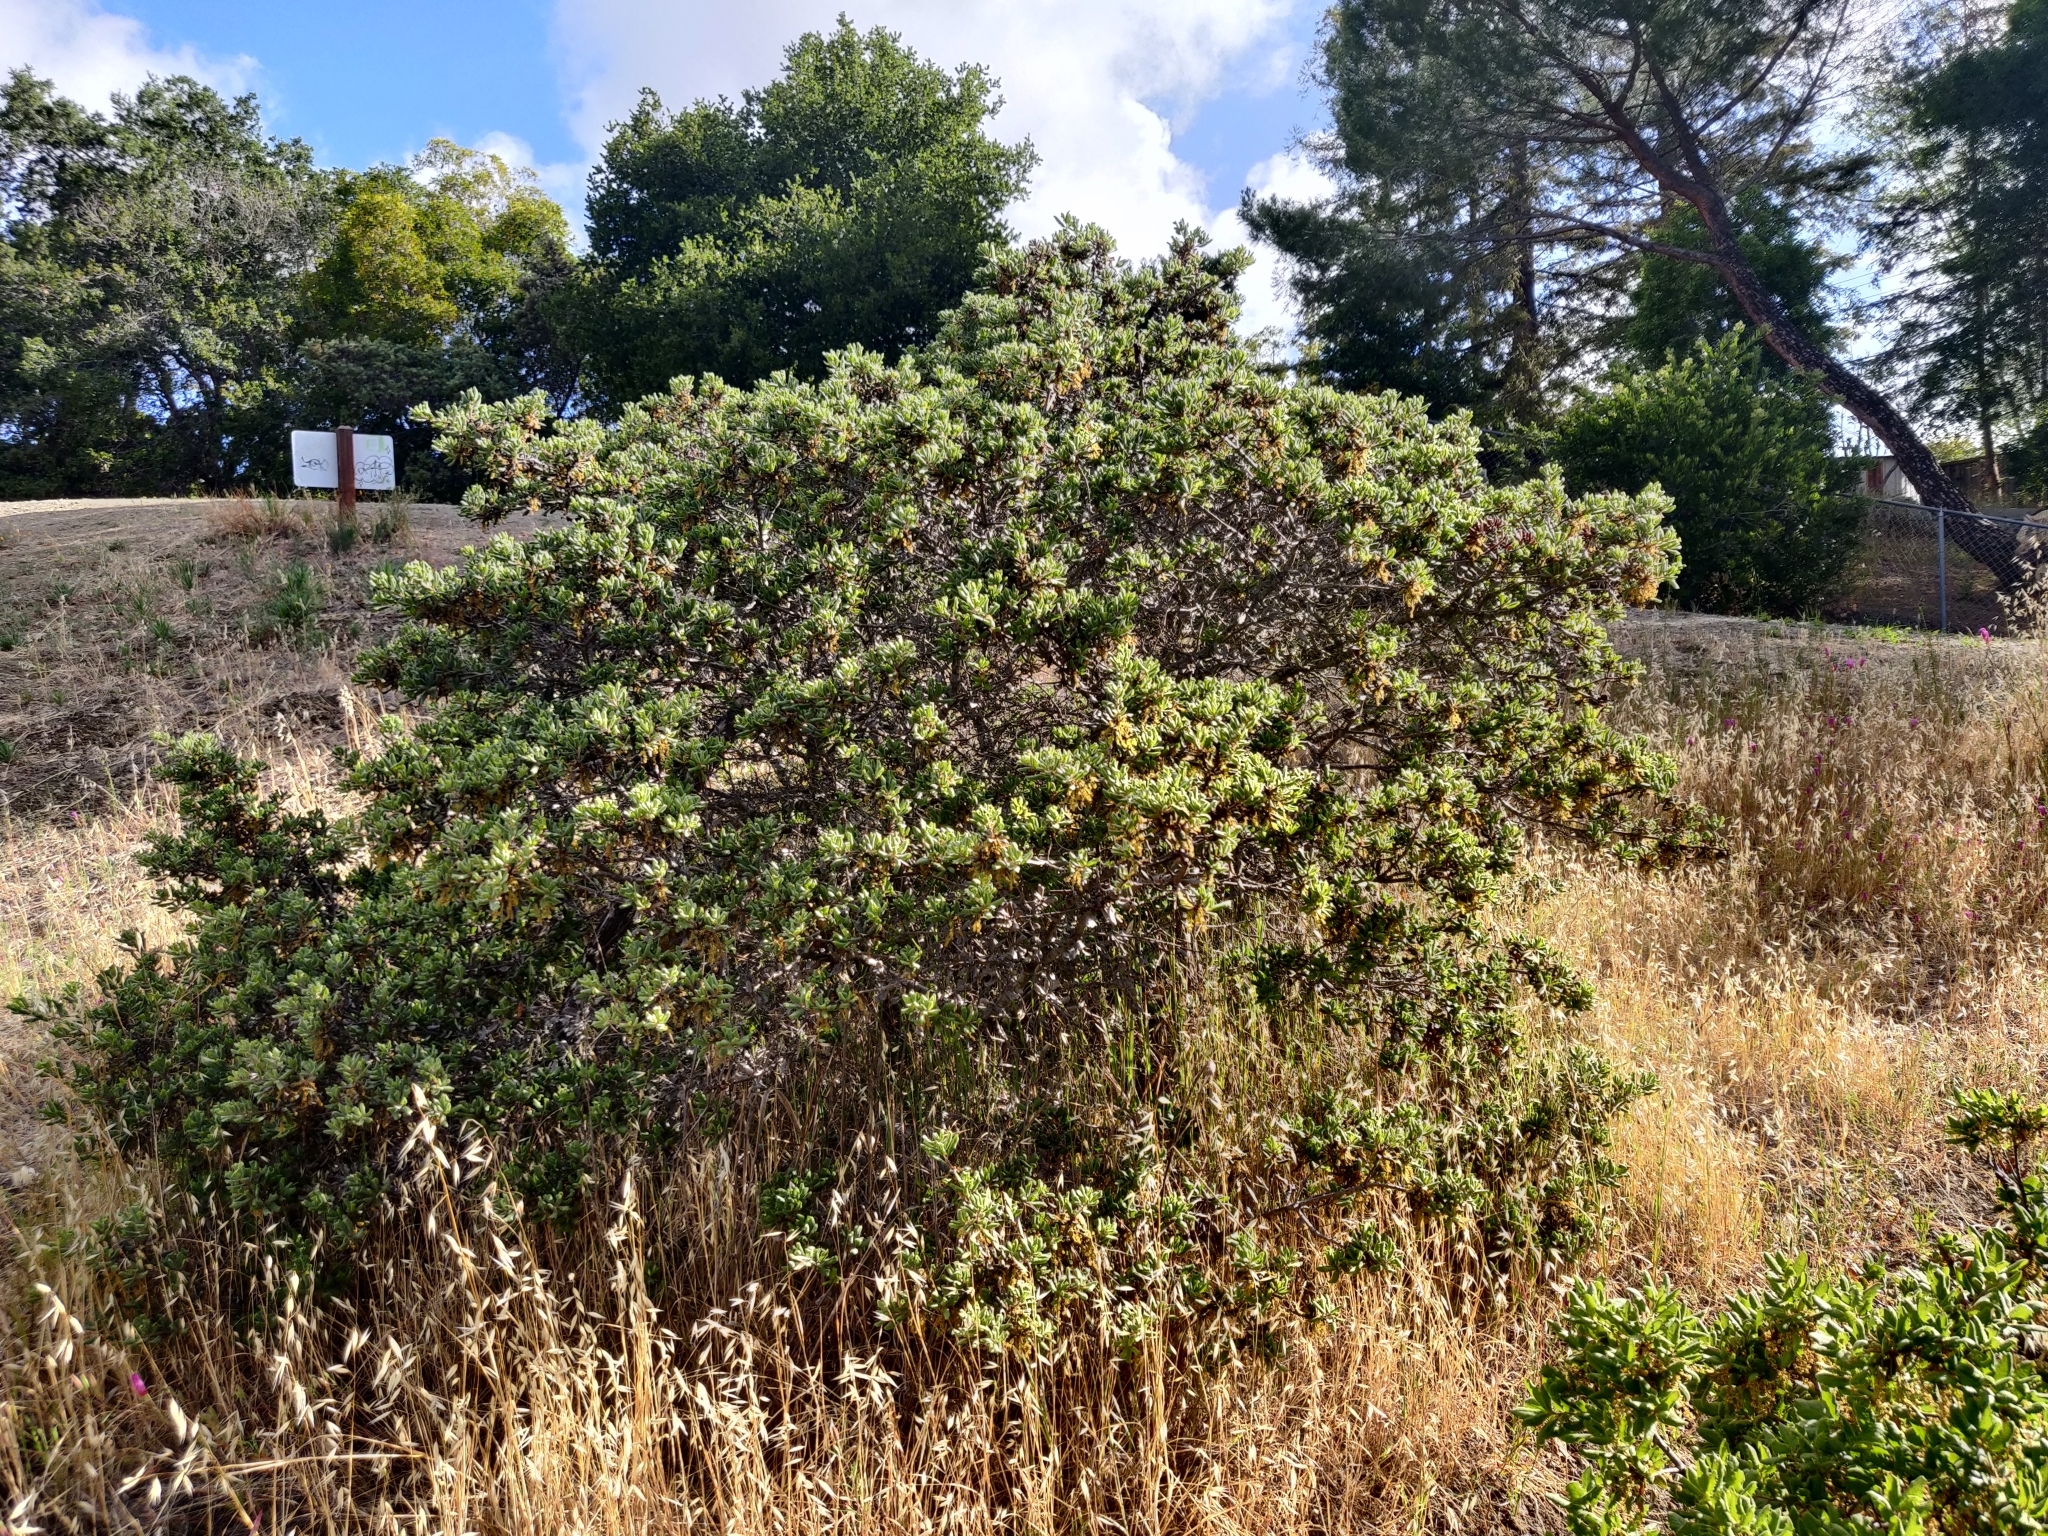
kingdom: Plantae
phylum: Tracheophyta
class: Magnoliopsida
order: Fagales
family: Fagaceae
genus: Quercus
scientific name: Quercus durata
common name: Leather oak
